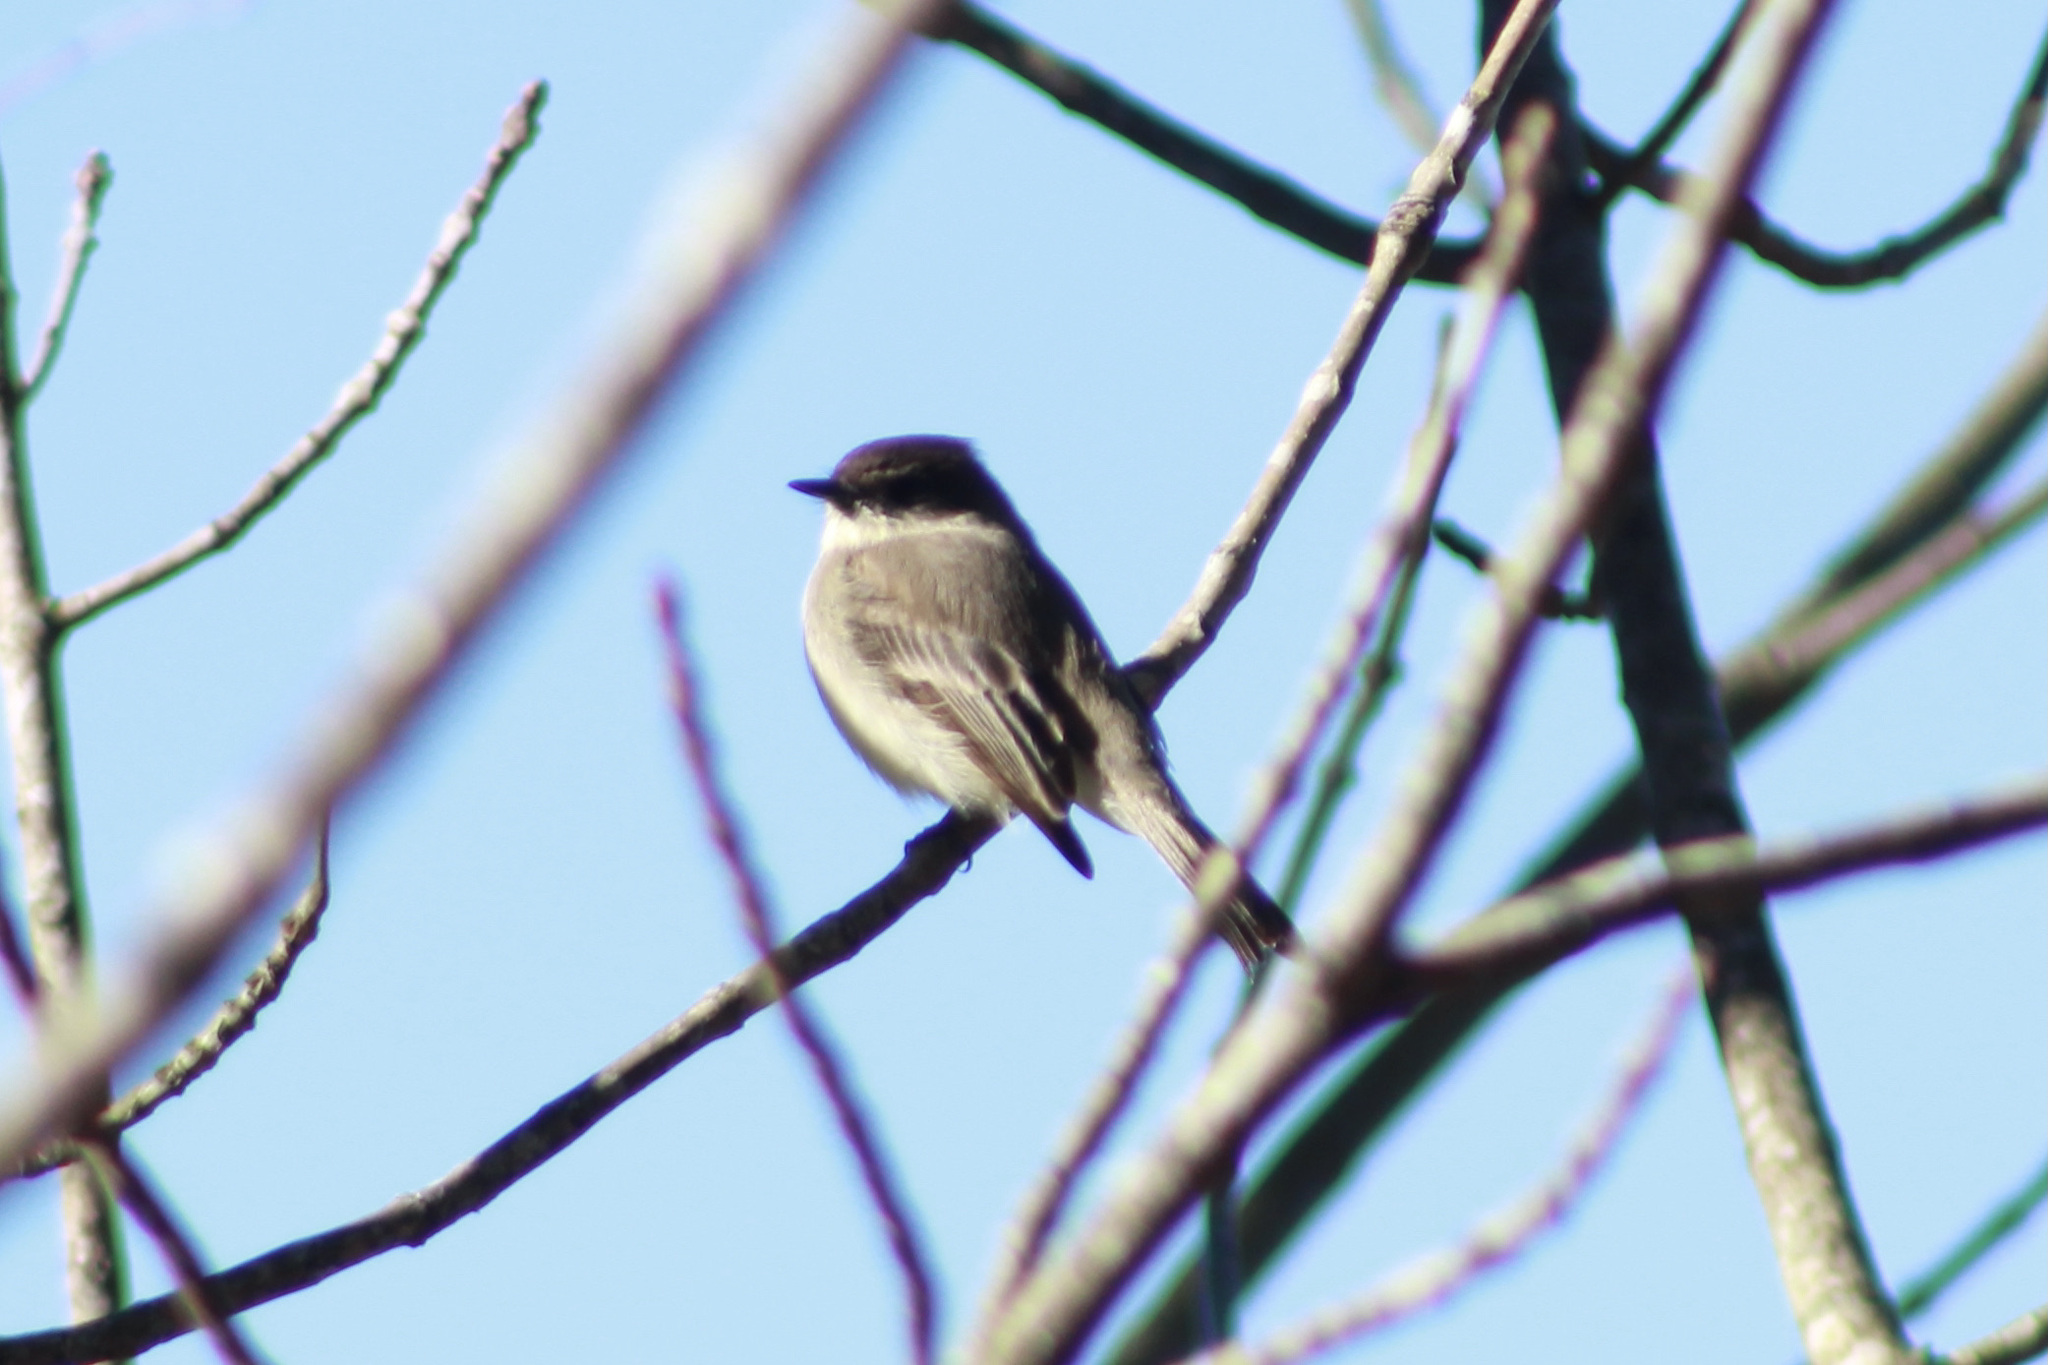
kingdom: Animalia
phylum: Chordata
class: Aves
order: Passeriformes
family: Tyrannidae
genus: Sayornis
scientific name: Sayornis phoebe
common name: Eastern phoebe
